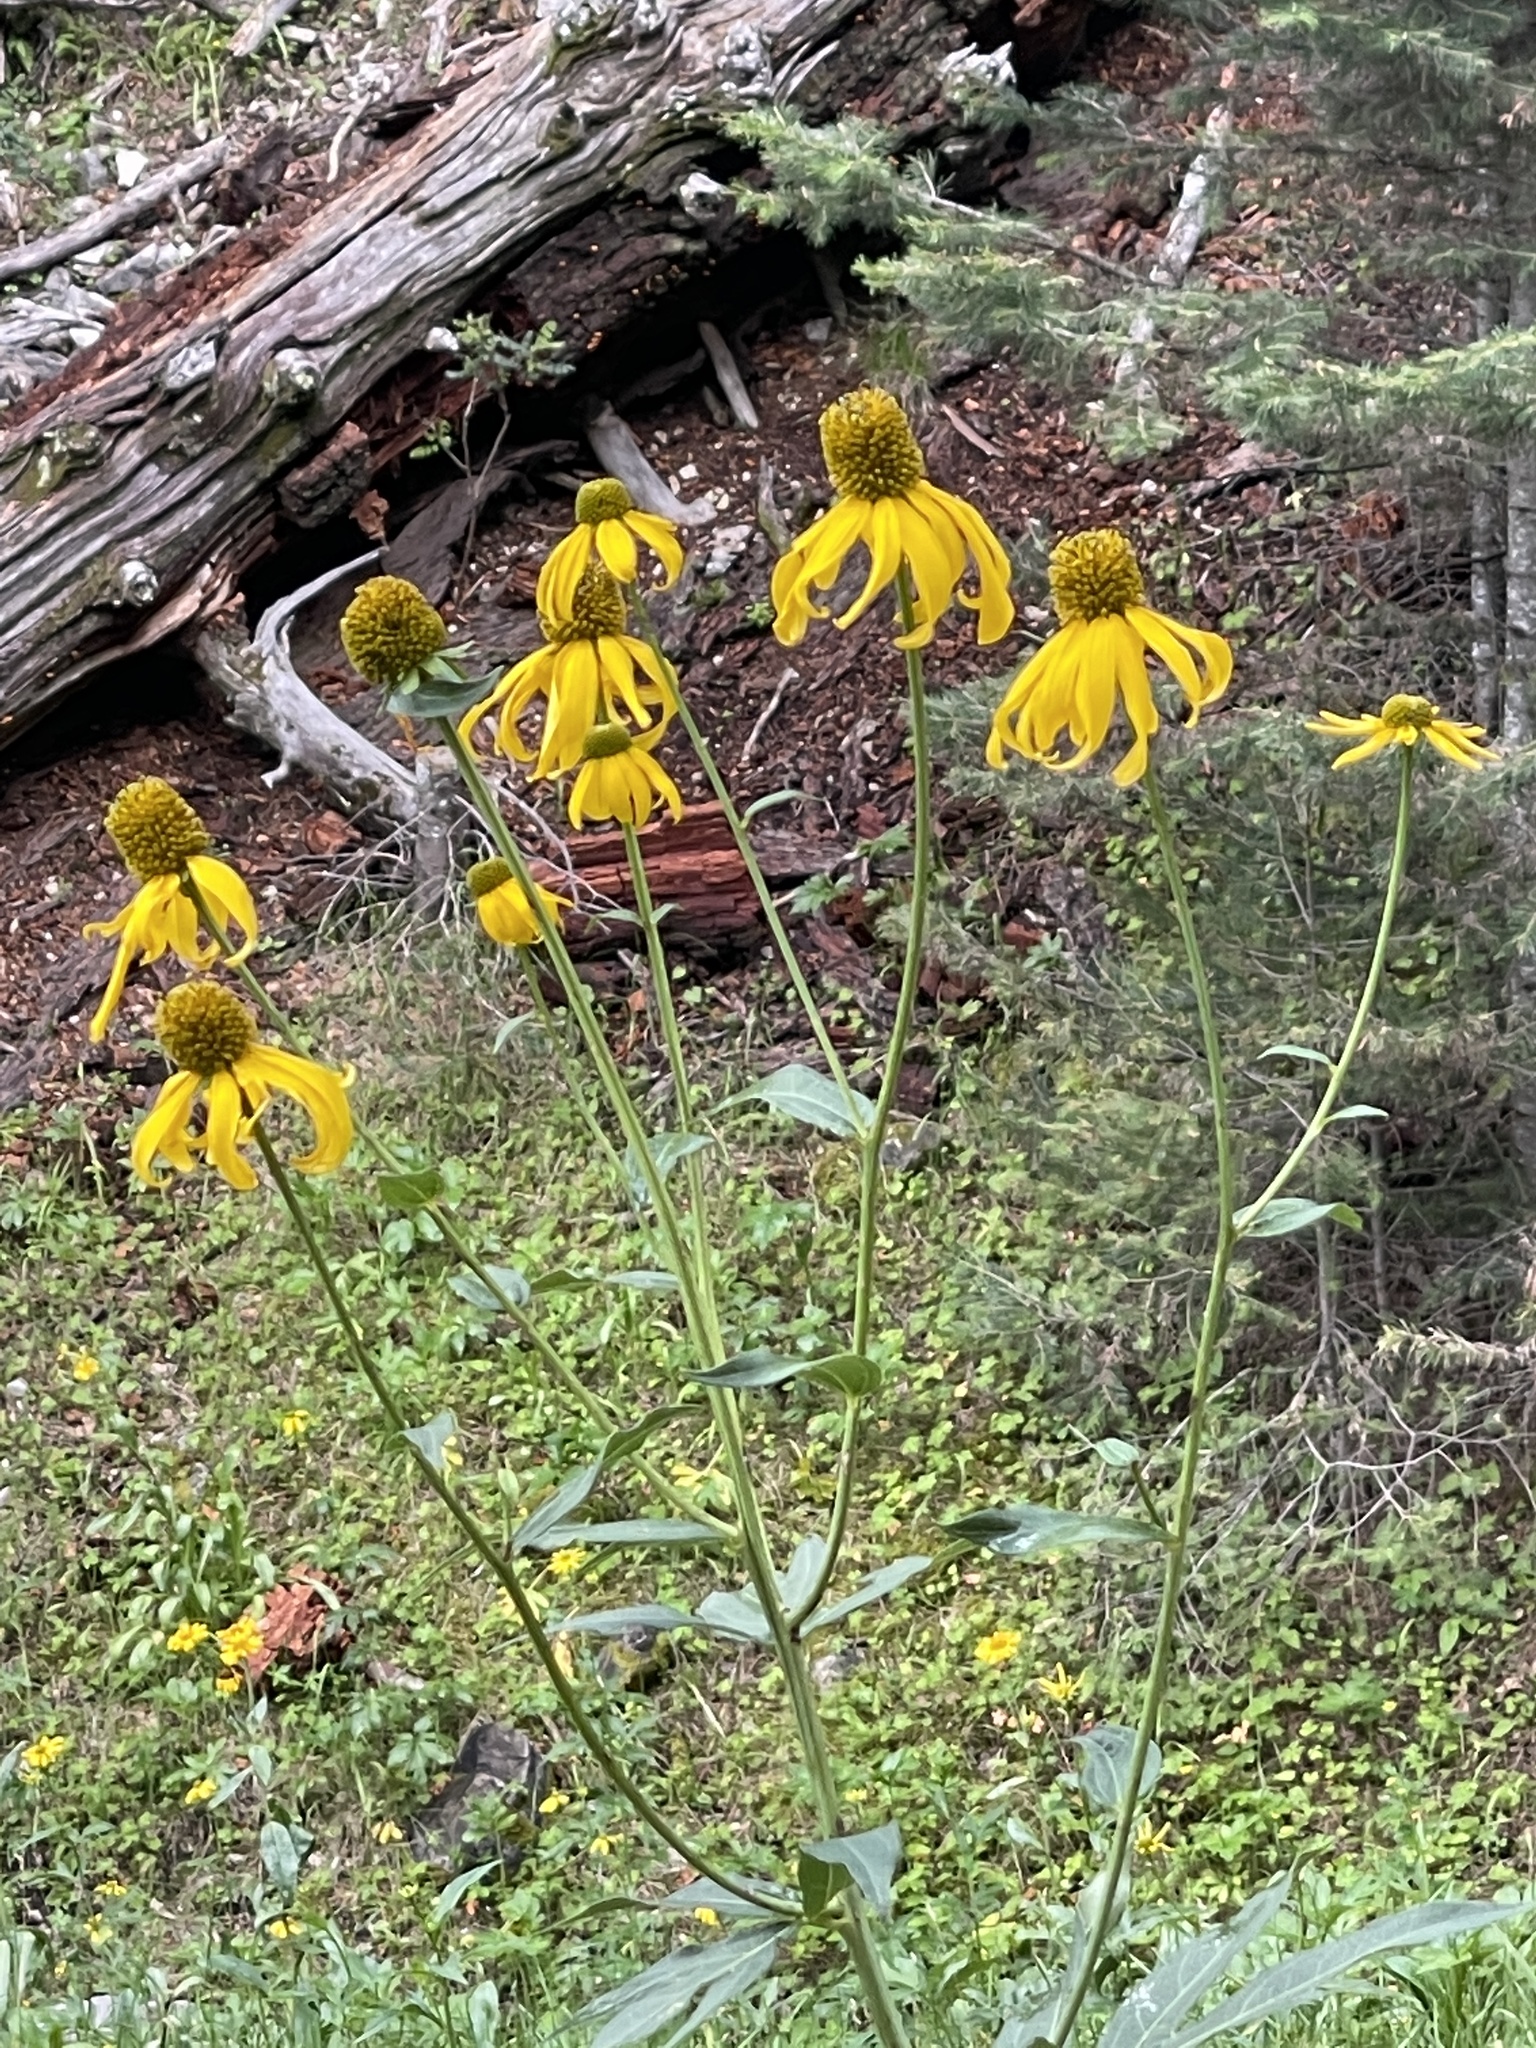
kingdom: Plantae
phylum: Tracheophyta
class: Magnoliopsida
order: Asterales
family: Asteraceae
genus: Rudbeckia
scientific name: Rudbeckia laciniata
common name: Coneflower
